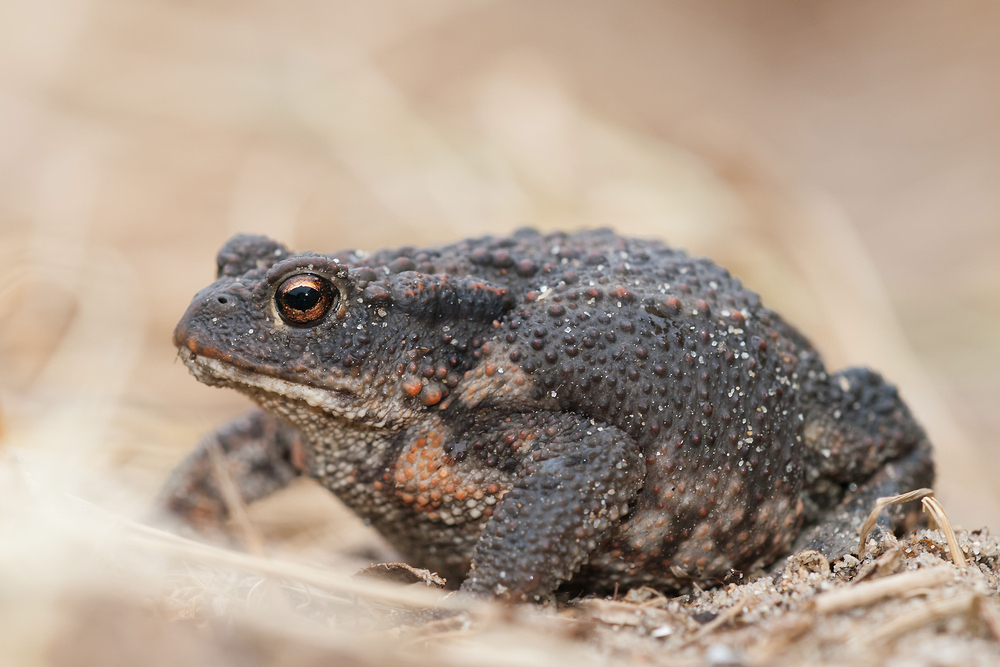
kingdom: Animalia
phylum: Chordata
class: Amphibia
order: Anura
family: Bufonidae
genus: Bufo
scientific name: Bufo bufo
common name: Common toad
